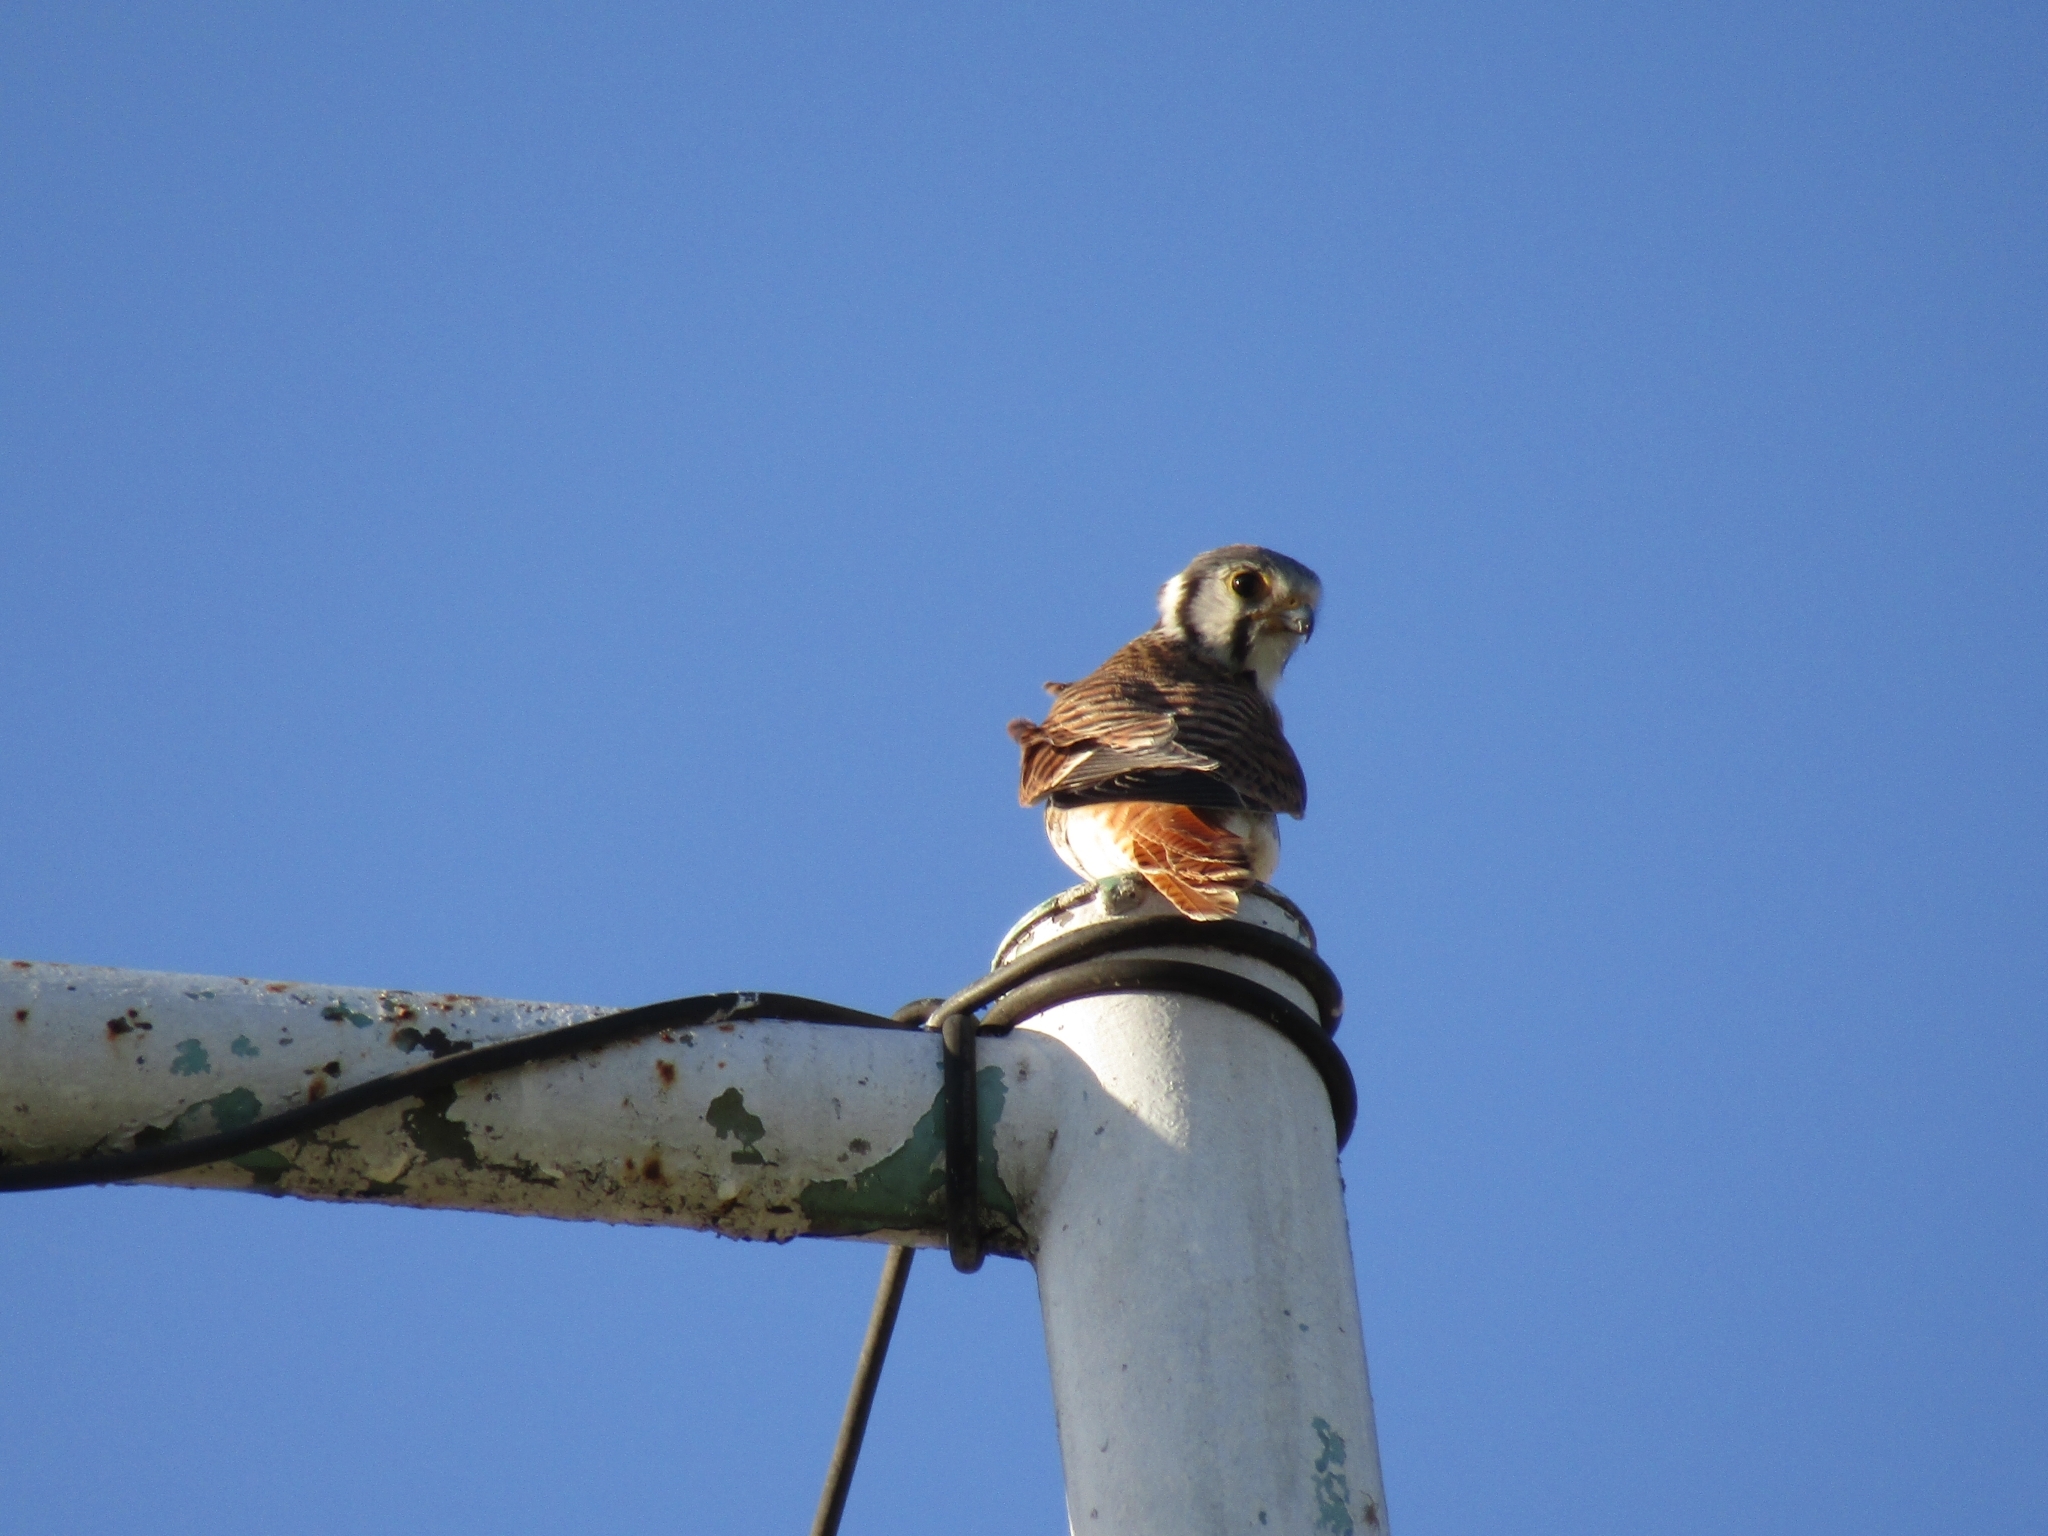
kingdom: Animalia
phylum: Chordata
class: Aves
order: Falconiformes
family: Falconidae
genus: Falco
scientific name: Falco sparverius
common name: American kestrel
